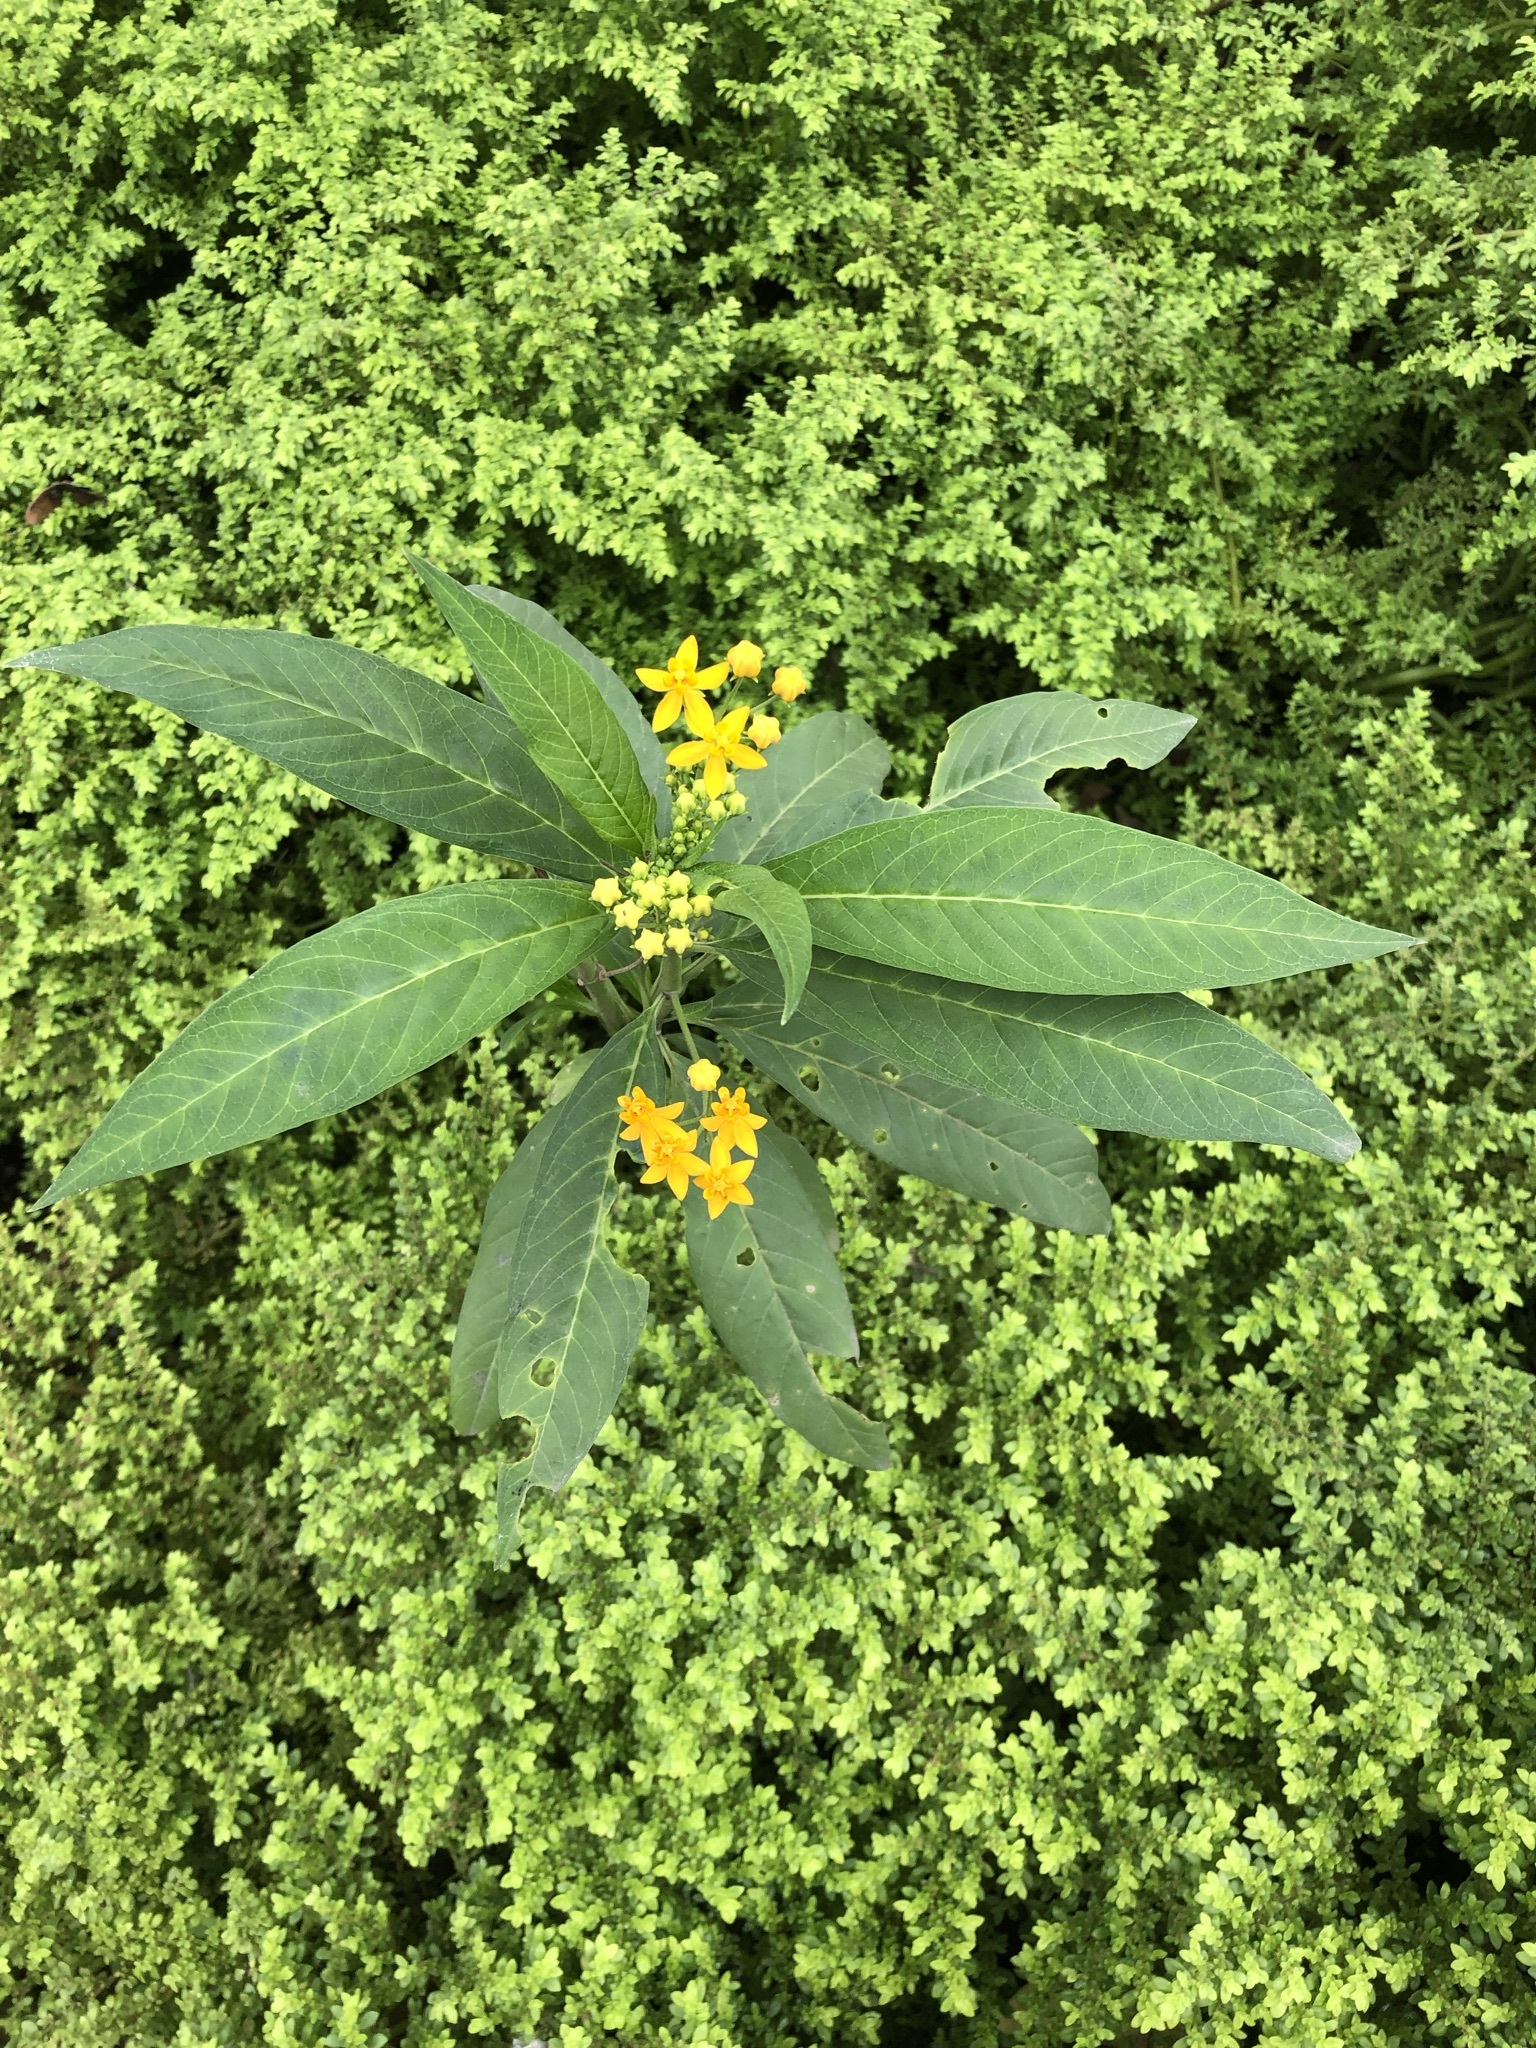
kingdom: Plantae
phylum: Tracheophyta
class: Magnoliopsida
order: Gentianales
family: Apocynaceae
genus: Asclepias
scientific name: Asclepias curassavica
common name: Bloodflower
